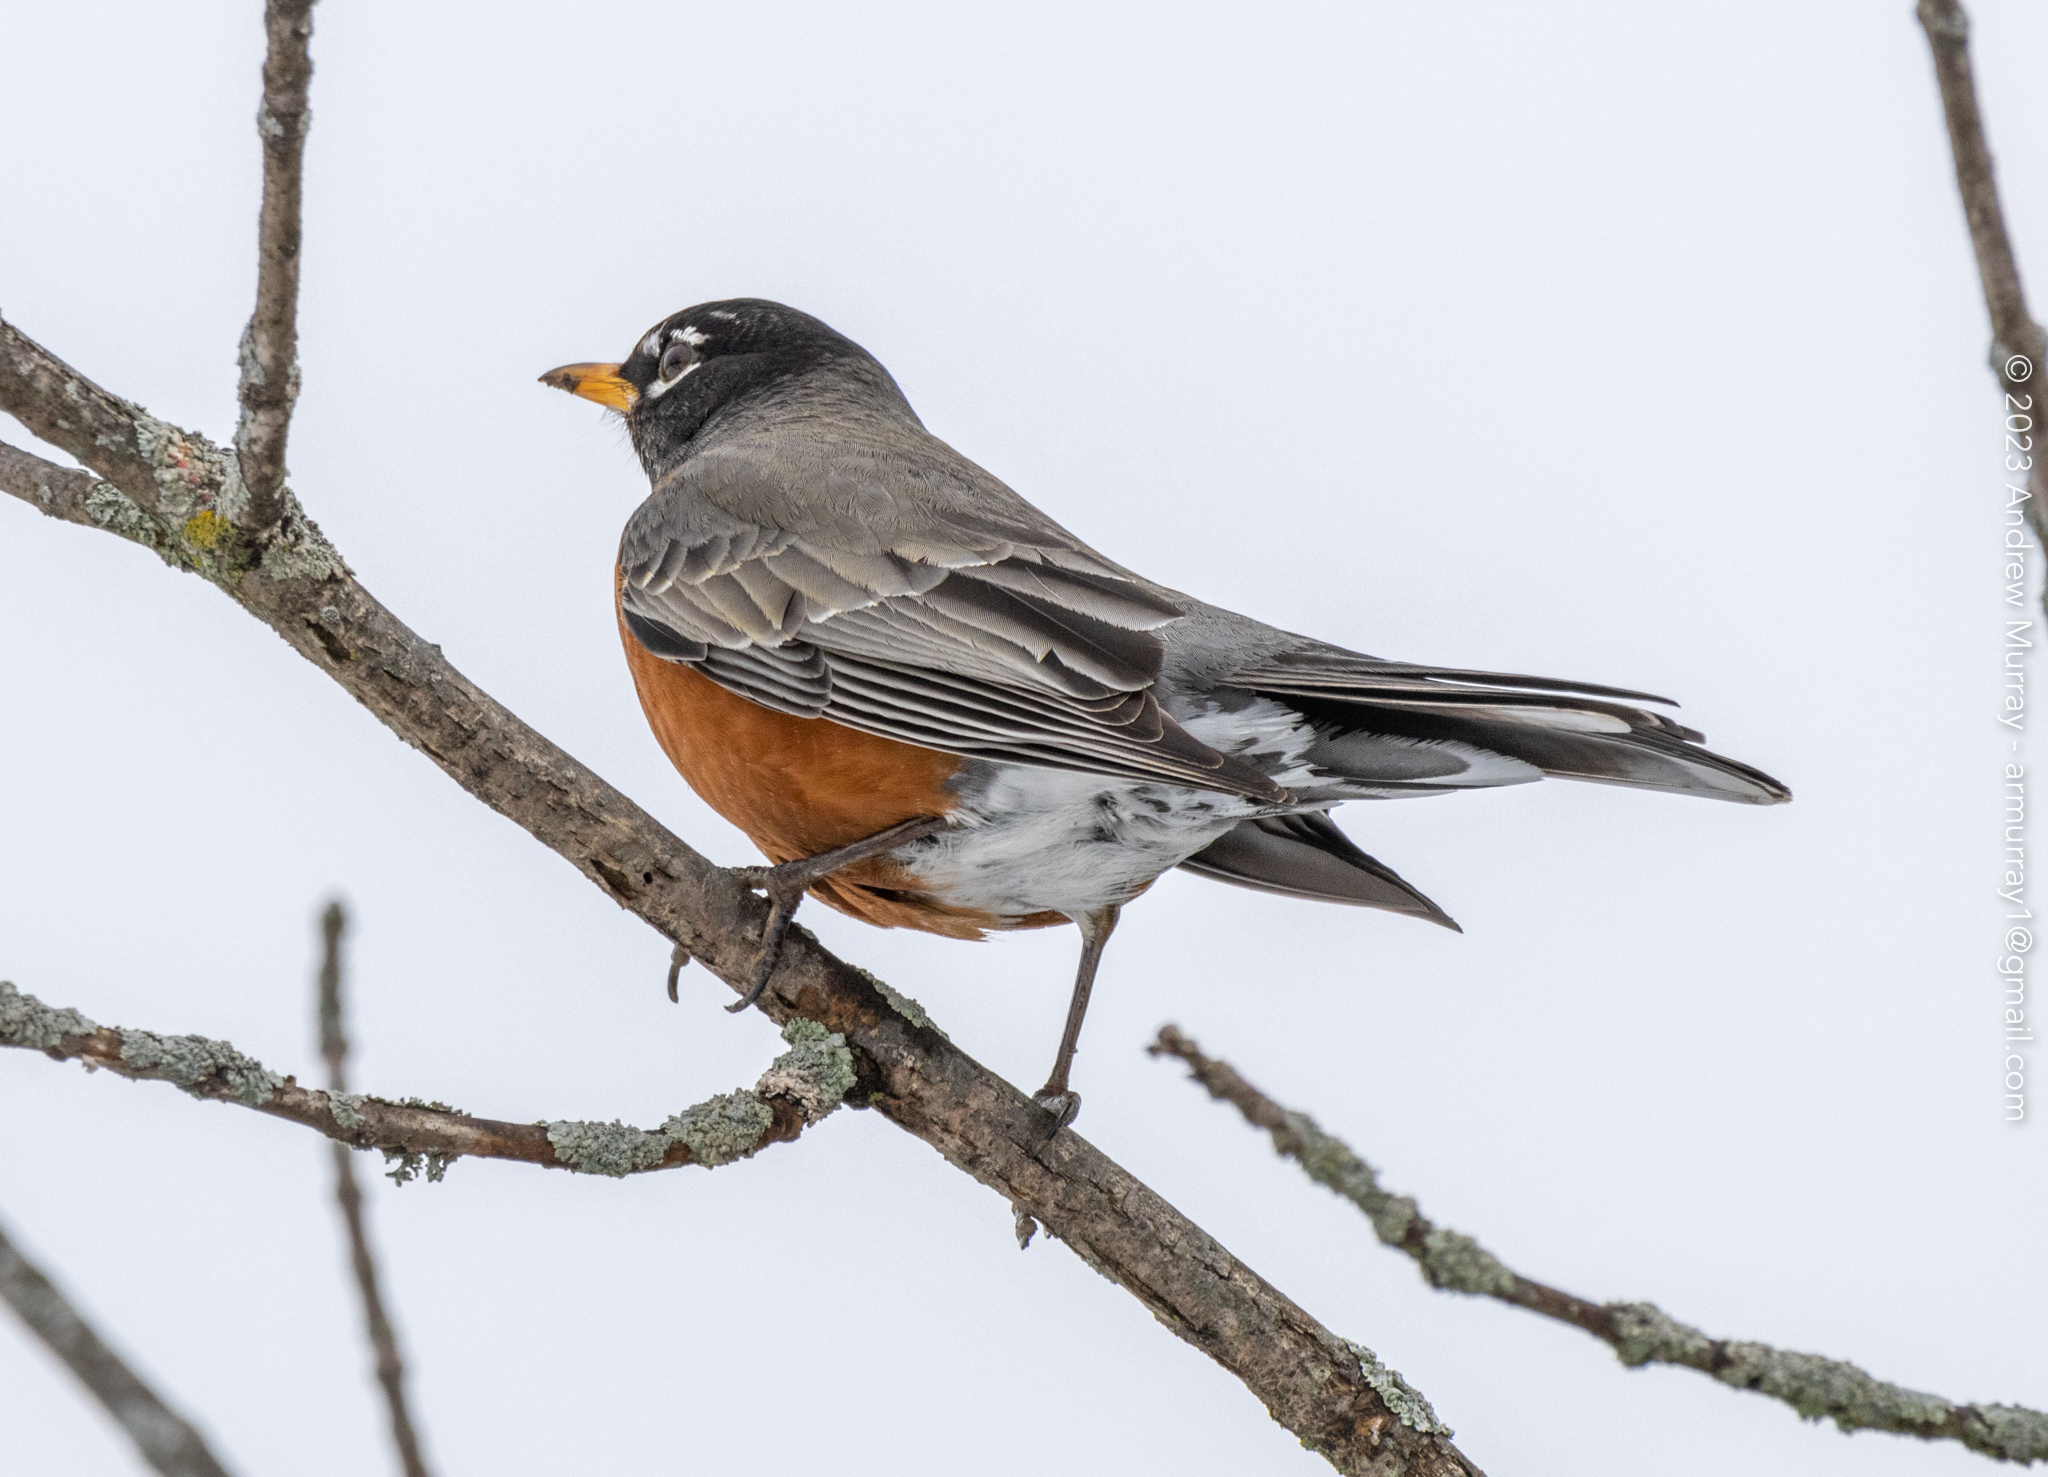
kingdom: Animalia
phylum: Chordata
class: Aves
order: Passeriformes
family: Turdidae
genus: Turdus
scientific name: Turdus migratorius
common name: American robin
